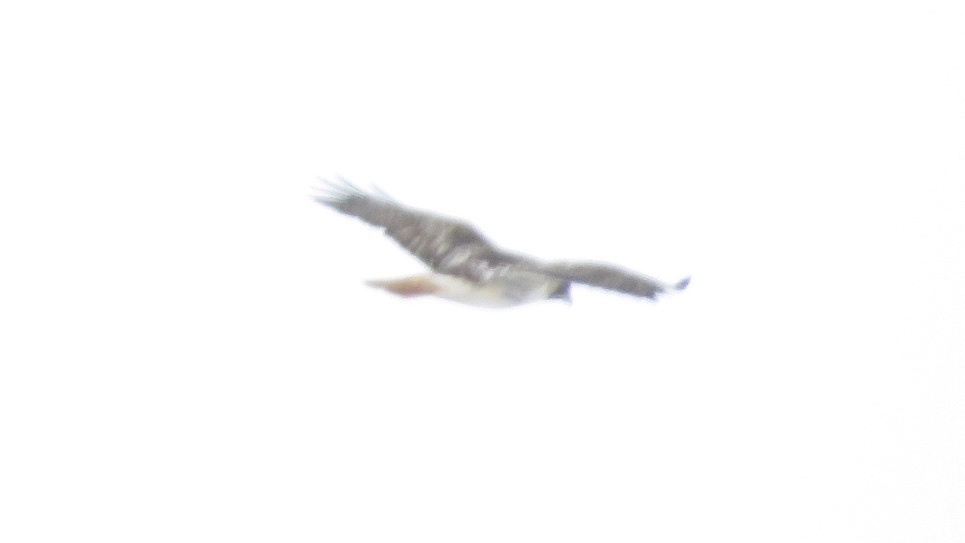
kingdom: Animalia
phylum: Chordata
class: Aves
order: Accipitriformes
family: Accipitridae
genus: Buteo
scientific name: Buteo jamaicensis
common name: Red-tailed hawk
